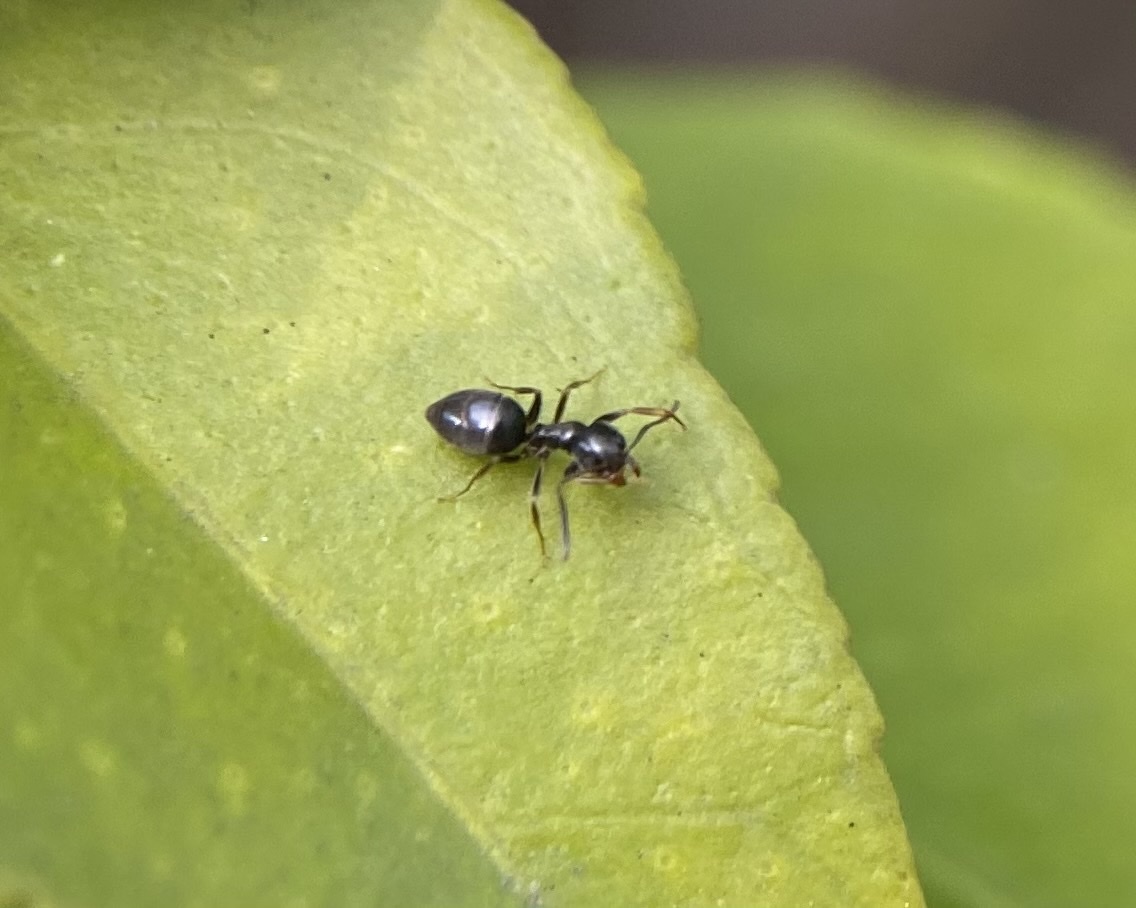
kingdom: Animalia
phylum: Arthropoda
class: Insecta
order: Hymenoptera
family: Formicidae
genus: Tapinoma
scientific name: Tapinoma sessile
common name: Odorous house ant
